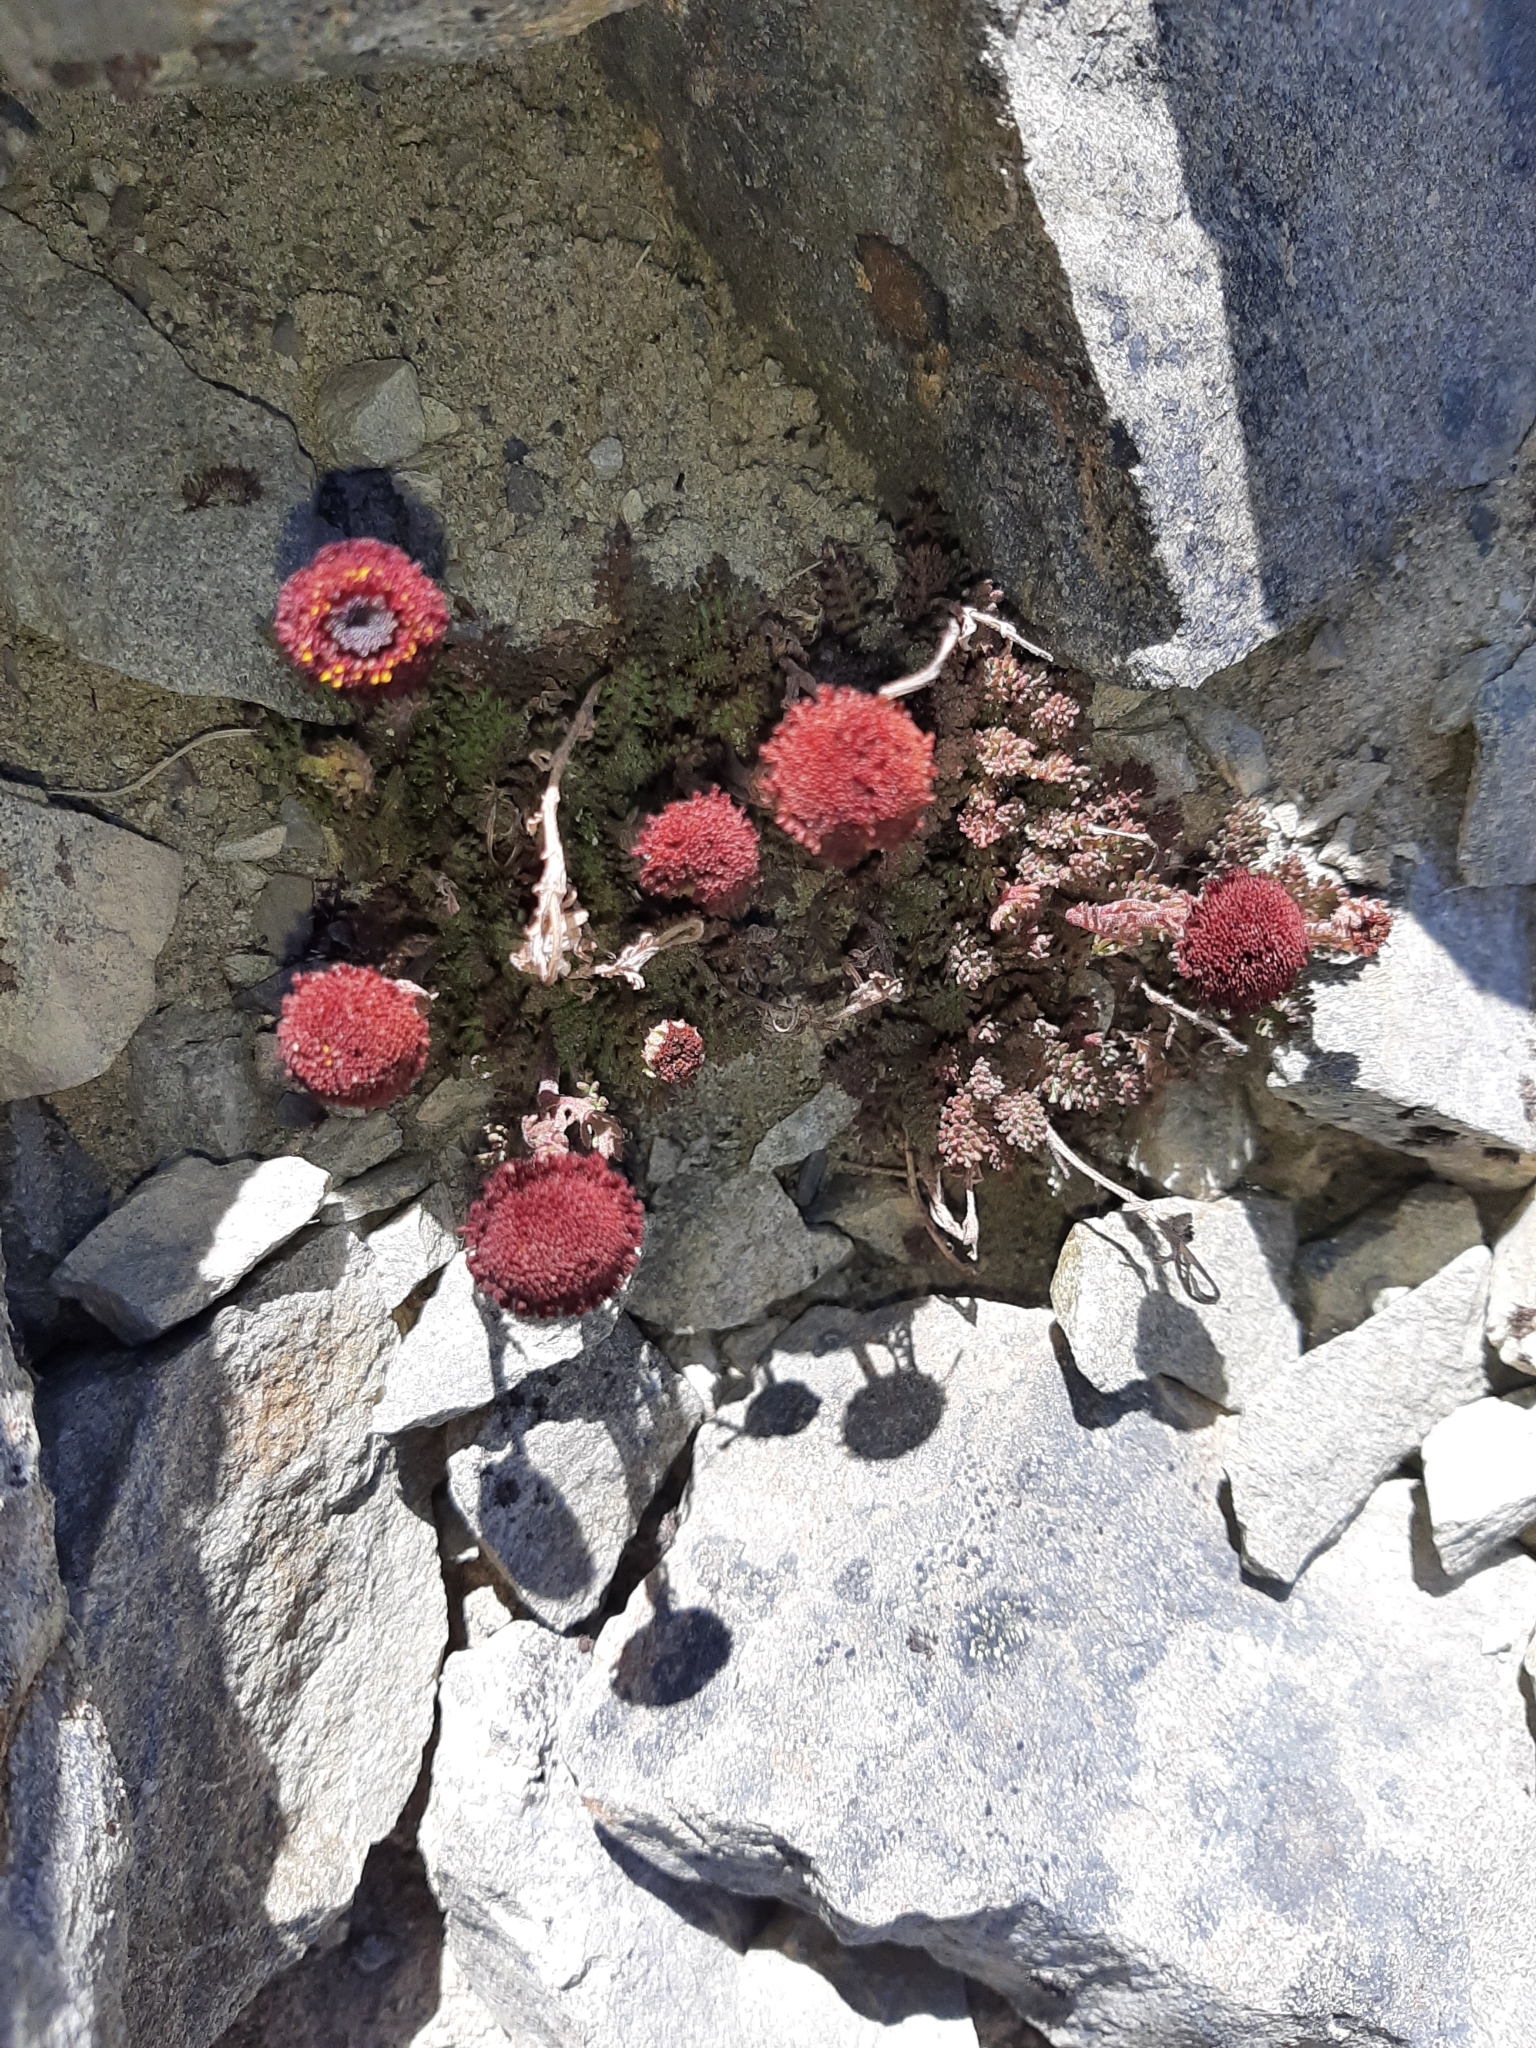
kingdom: Plantae
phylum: Tracheophyta
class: Magnoliopsida
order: Asterales
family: Asteraceae
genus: Leptinella
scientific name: Leptinella atrata
